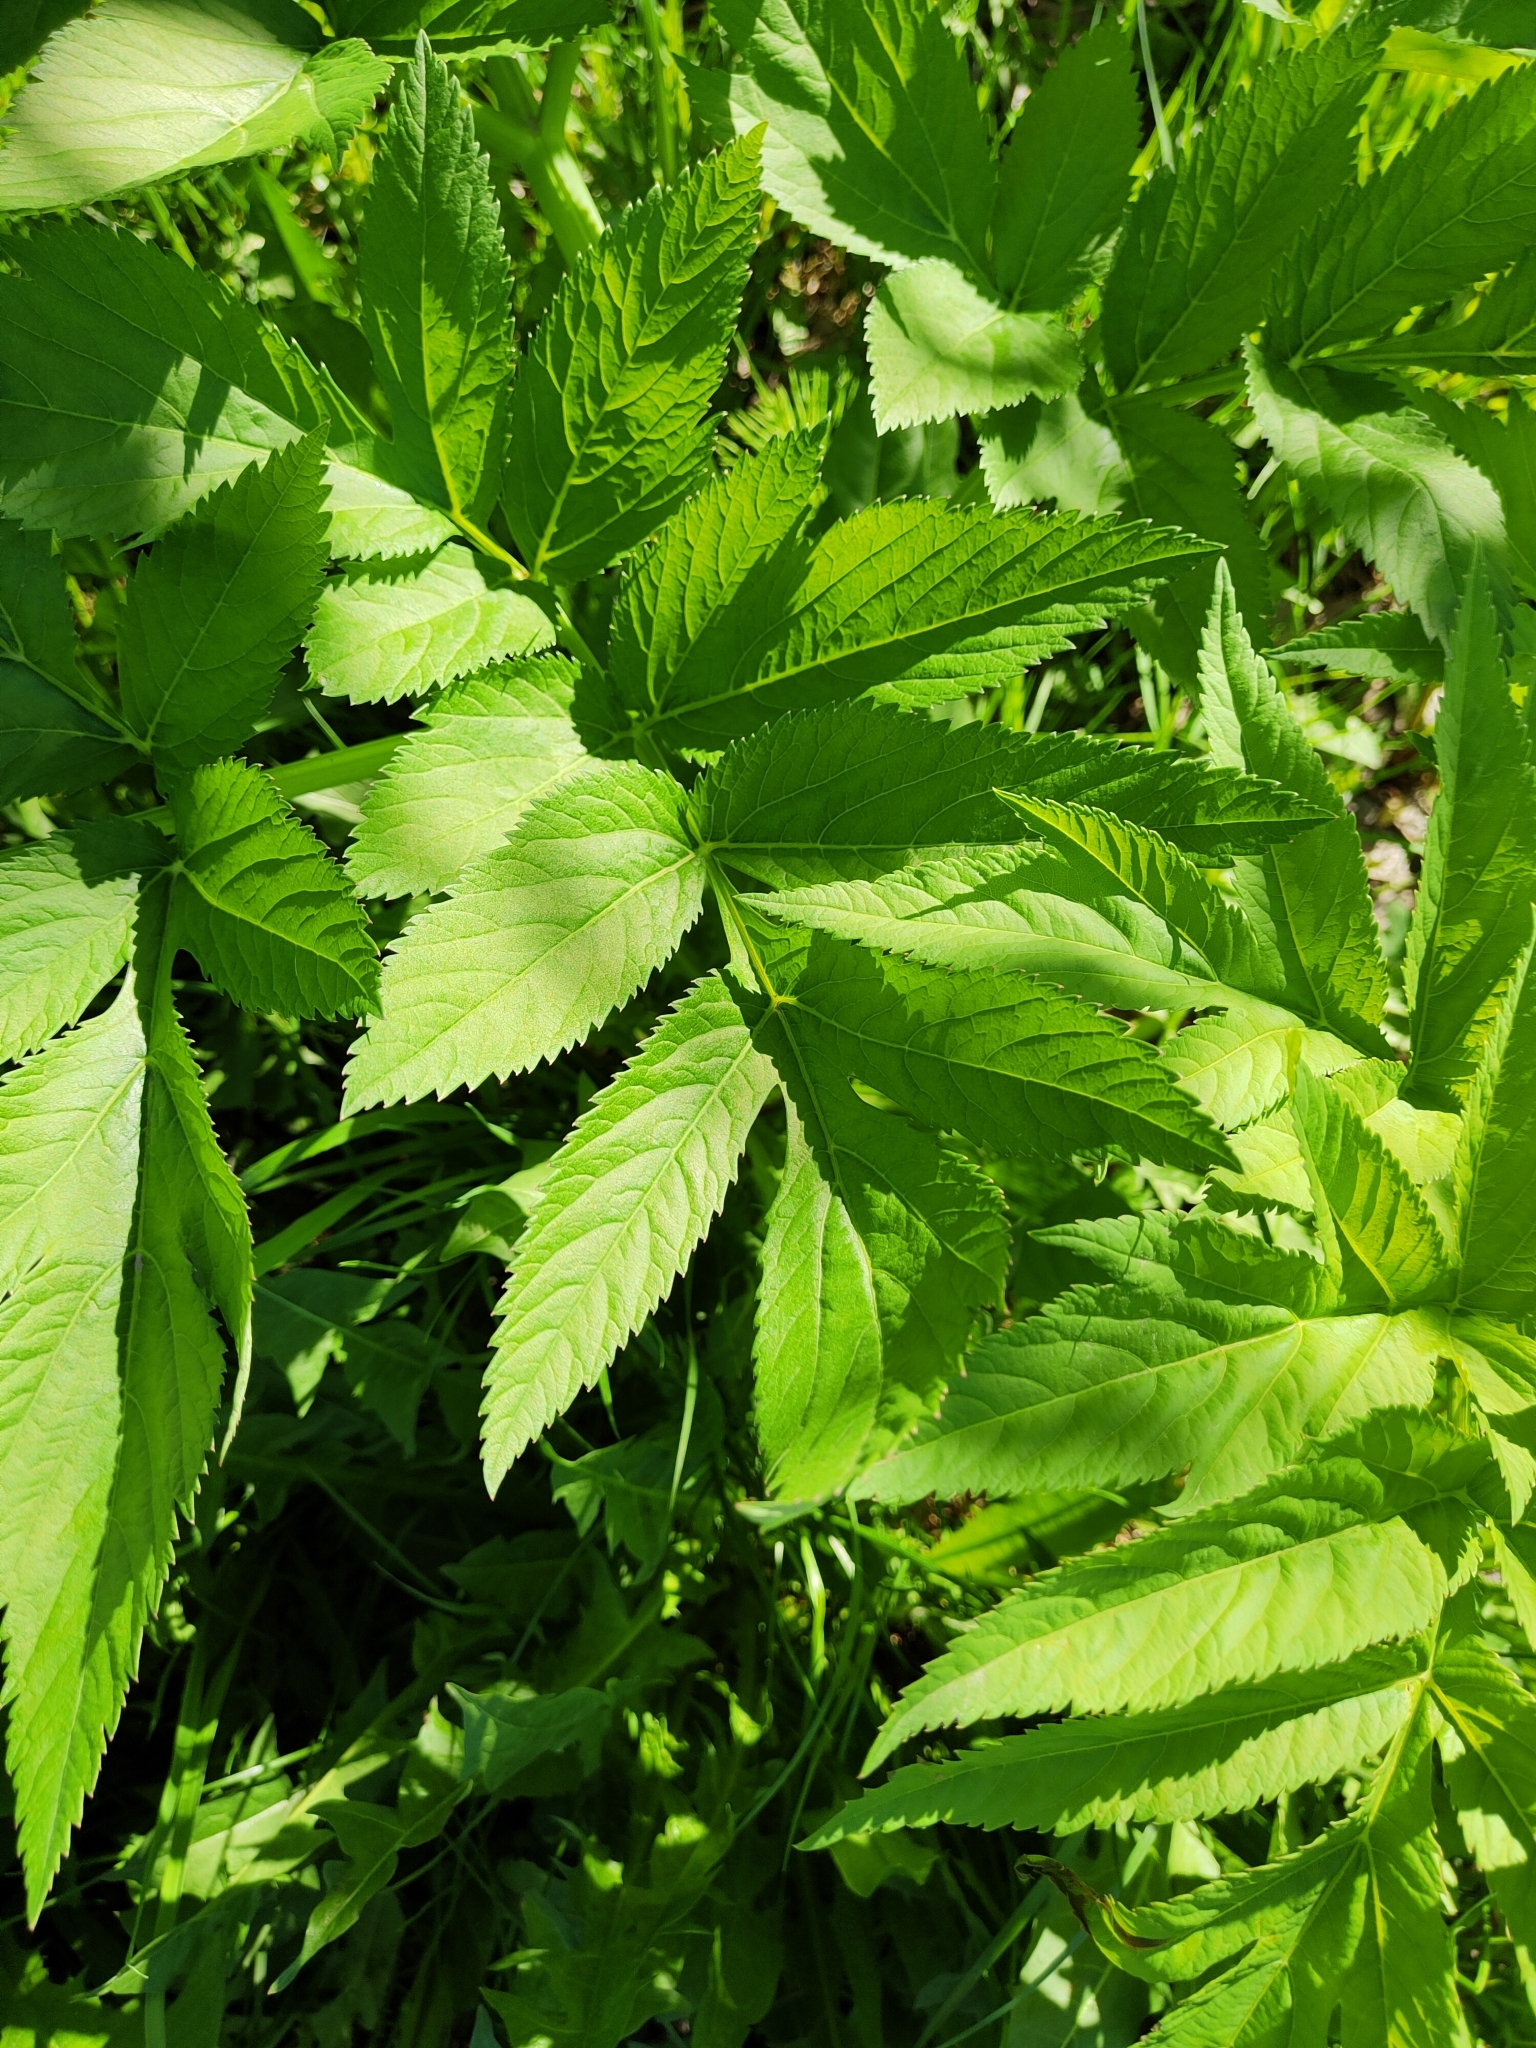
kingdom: Plantae
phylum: Tracheophyta
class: Magnoliopsida
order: Apiales
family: Apiaceae
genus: Angelica
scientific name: Angelica decurrens
